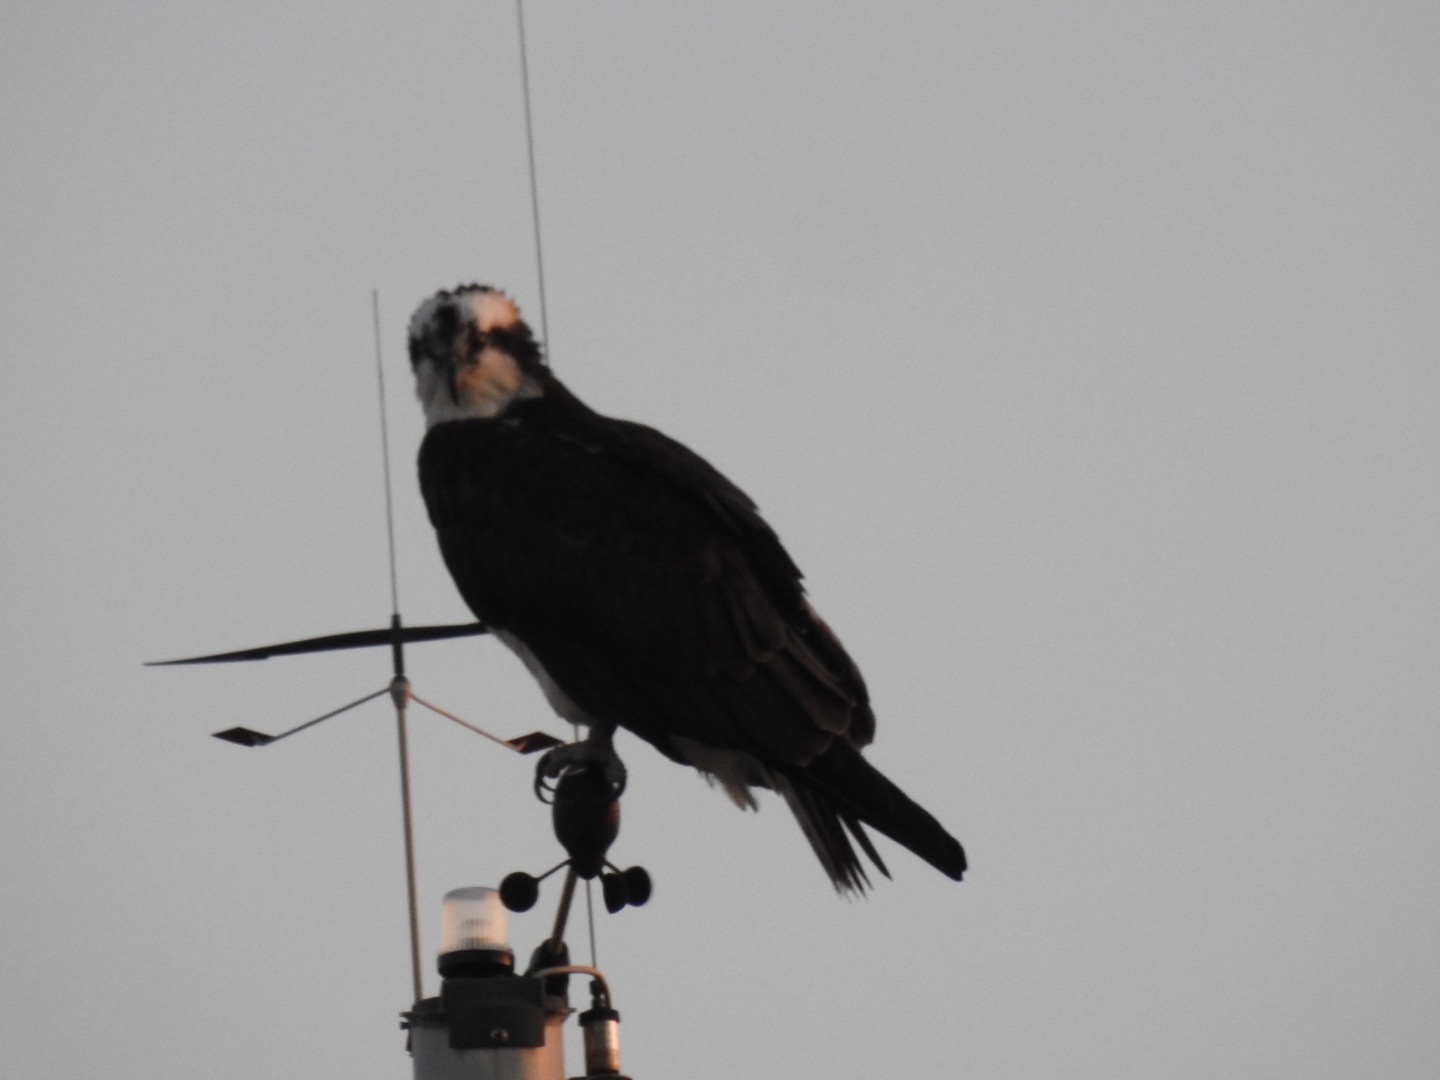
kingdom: Animalia
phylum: Chordata
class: Aves
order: Accipitriformes
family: Pandionidae
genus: Pandion
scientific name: Pandion haliaetus
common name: Osprey
